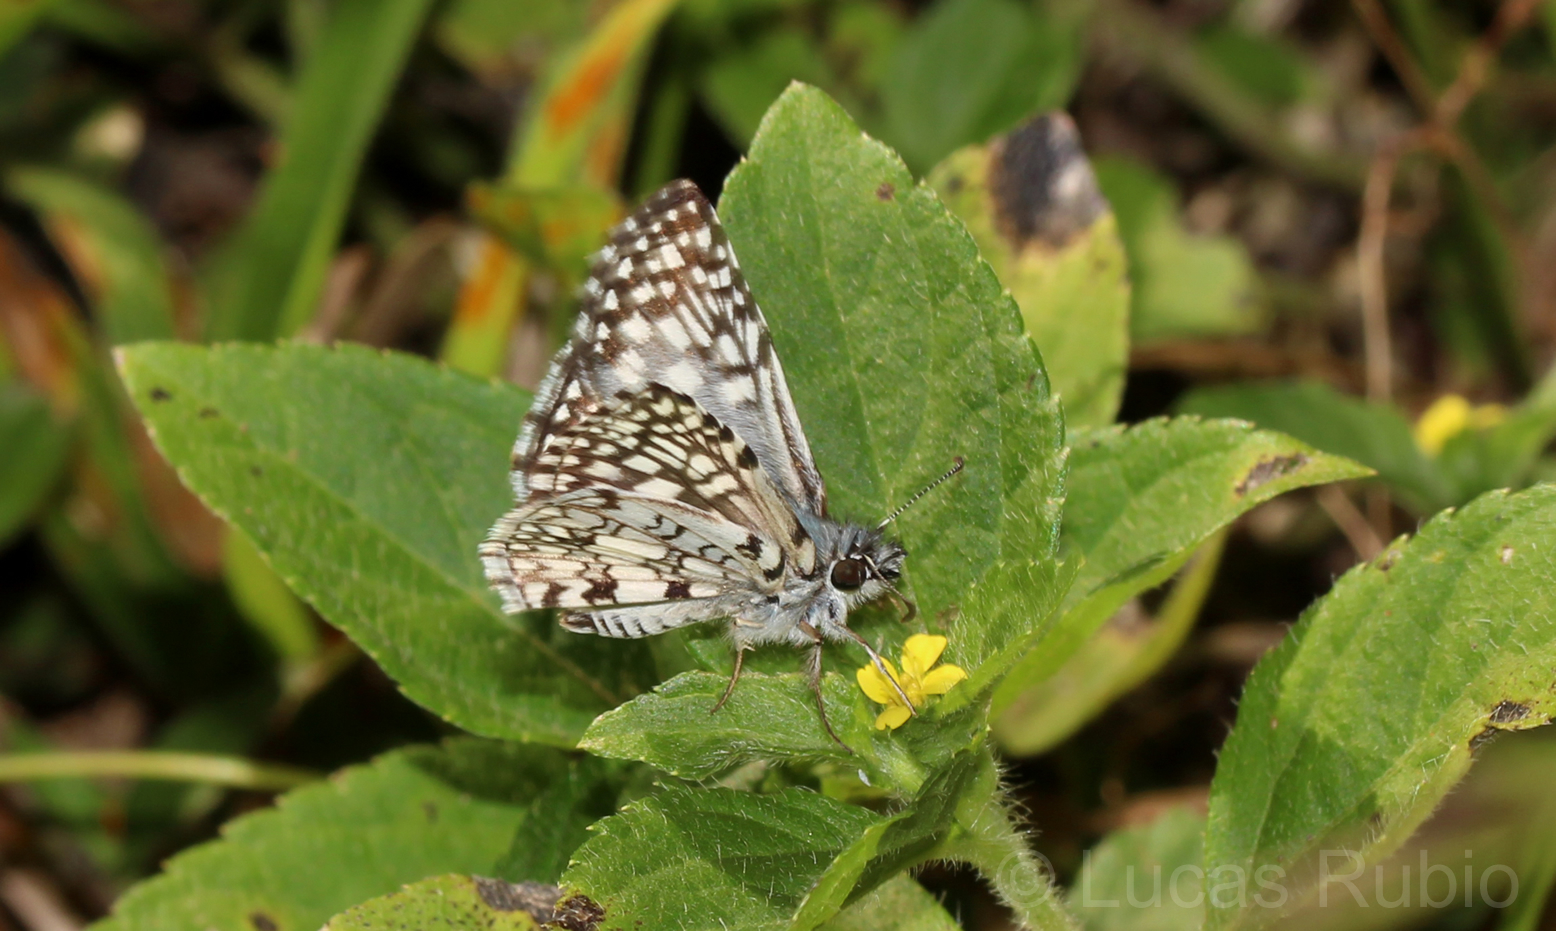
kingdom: Animalia
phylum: Arthropoda
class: Insecta
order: Lepidoptera
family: Hesperiidae
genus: Pyrgus
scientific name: Pyrgus oileus
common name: Tropical checkered-skipper
